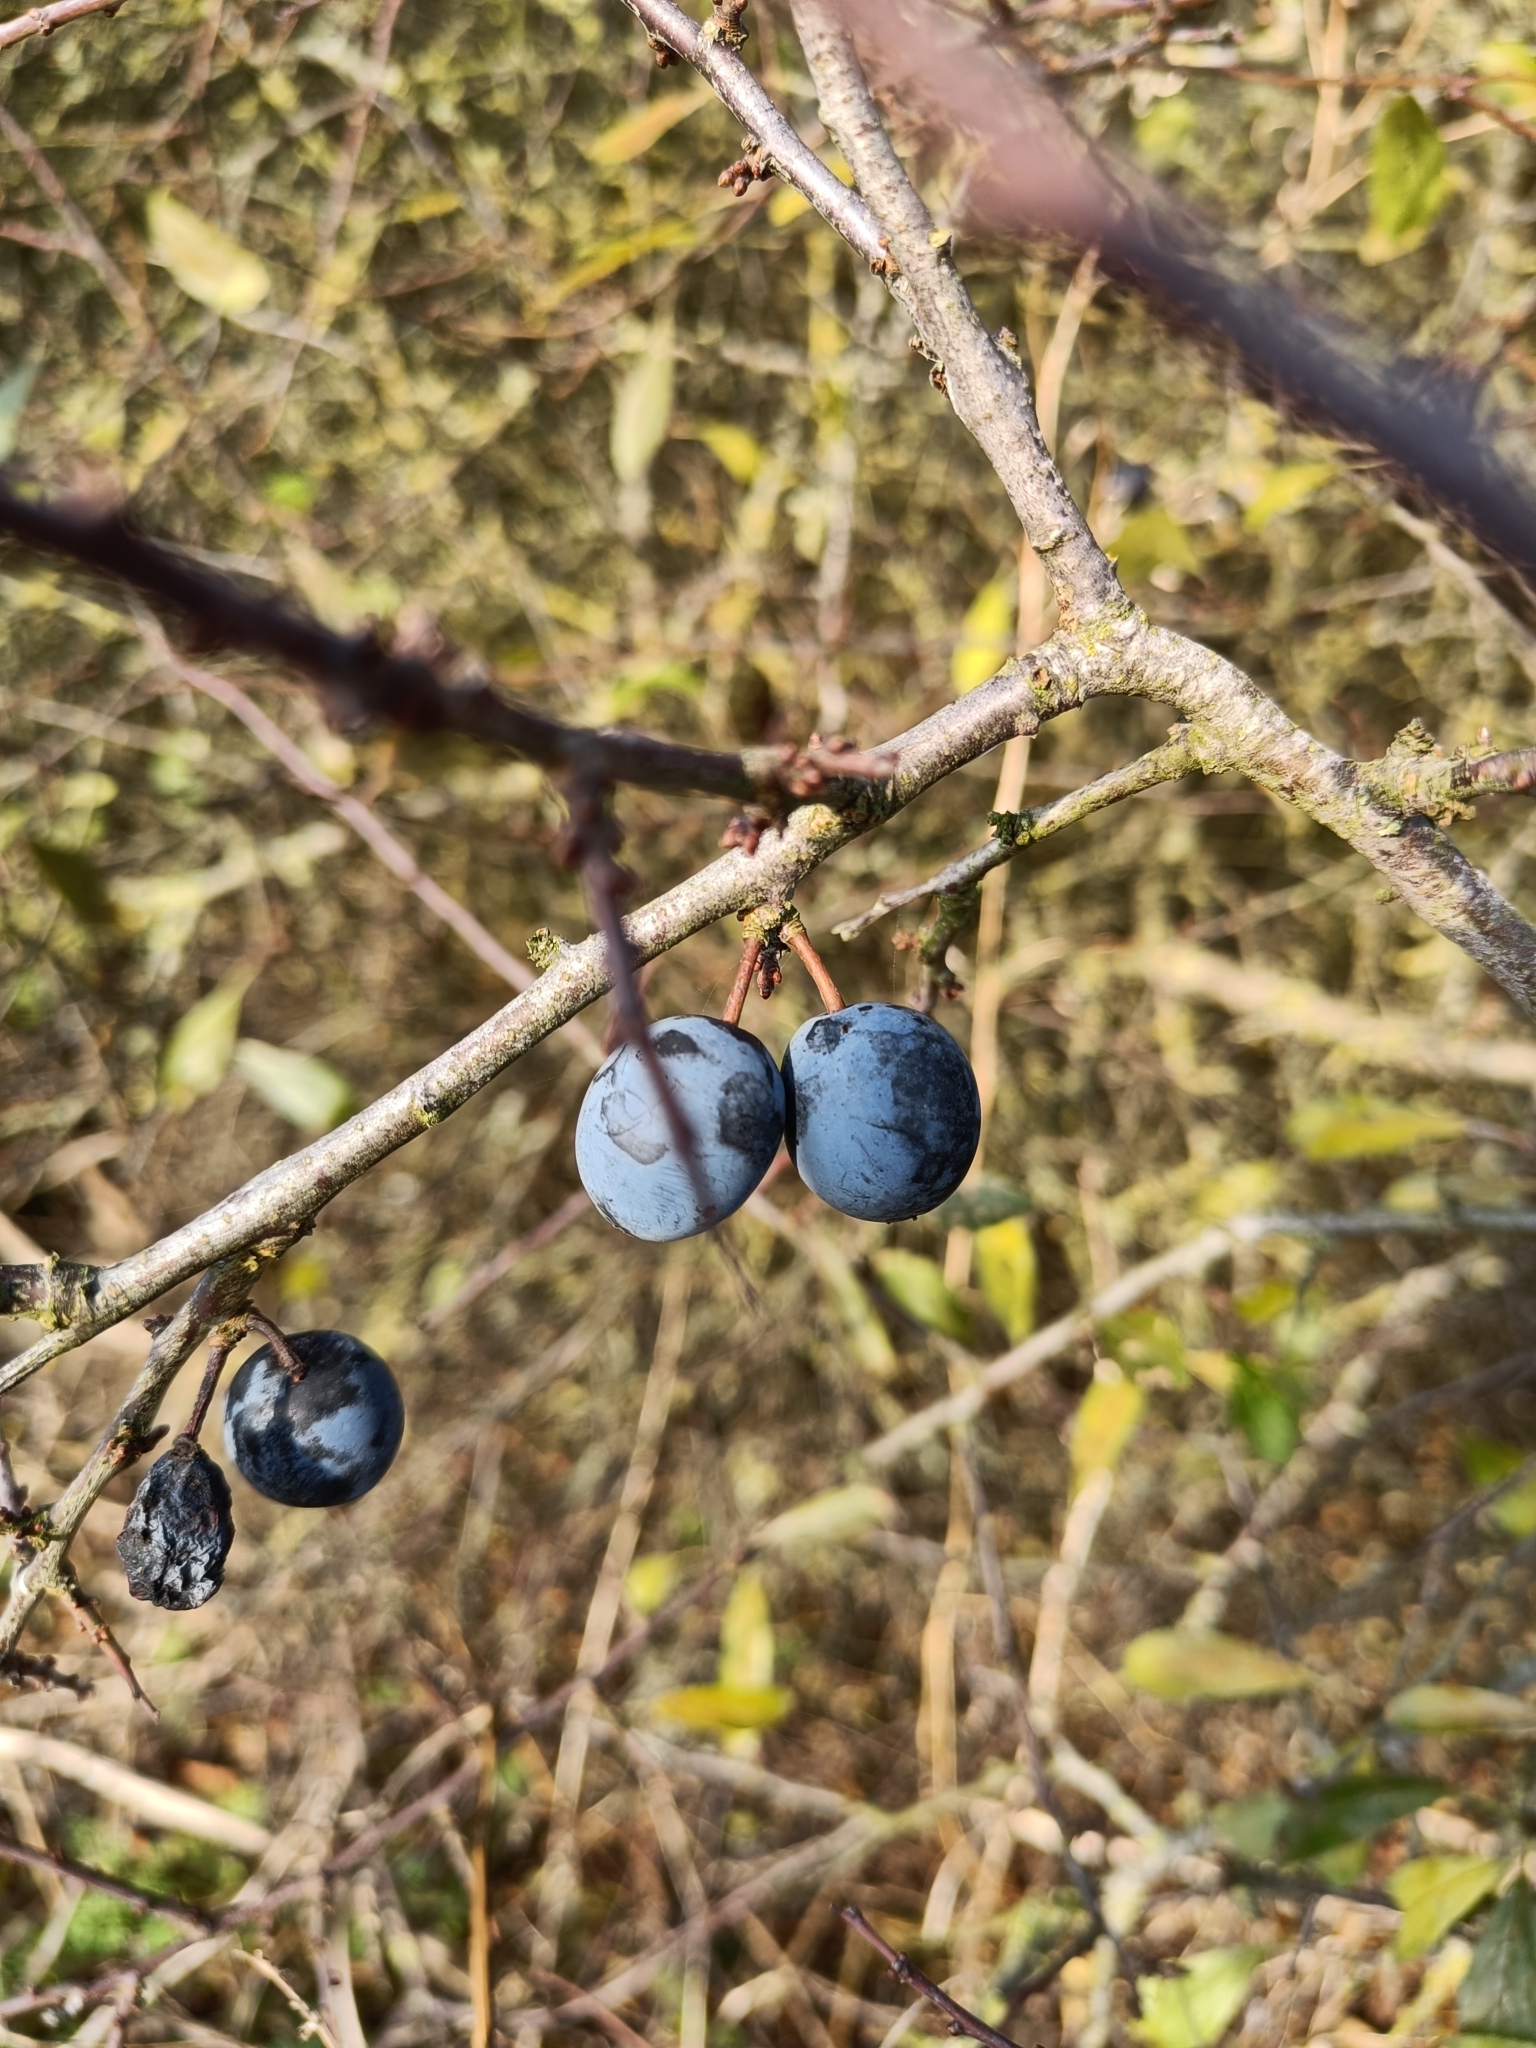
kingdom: Plantae
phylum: Tracheophyta
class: Magnoliopsida
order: Rosales
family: Rosaceae
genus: Prunus
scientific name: Prunus spinosa
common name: Blackthorn
